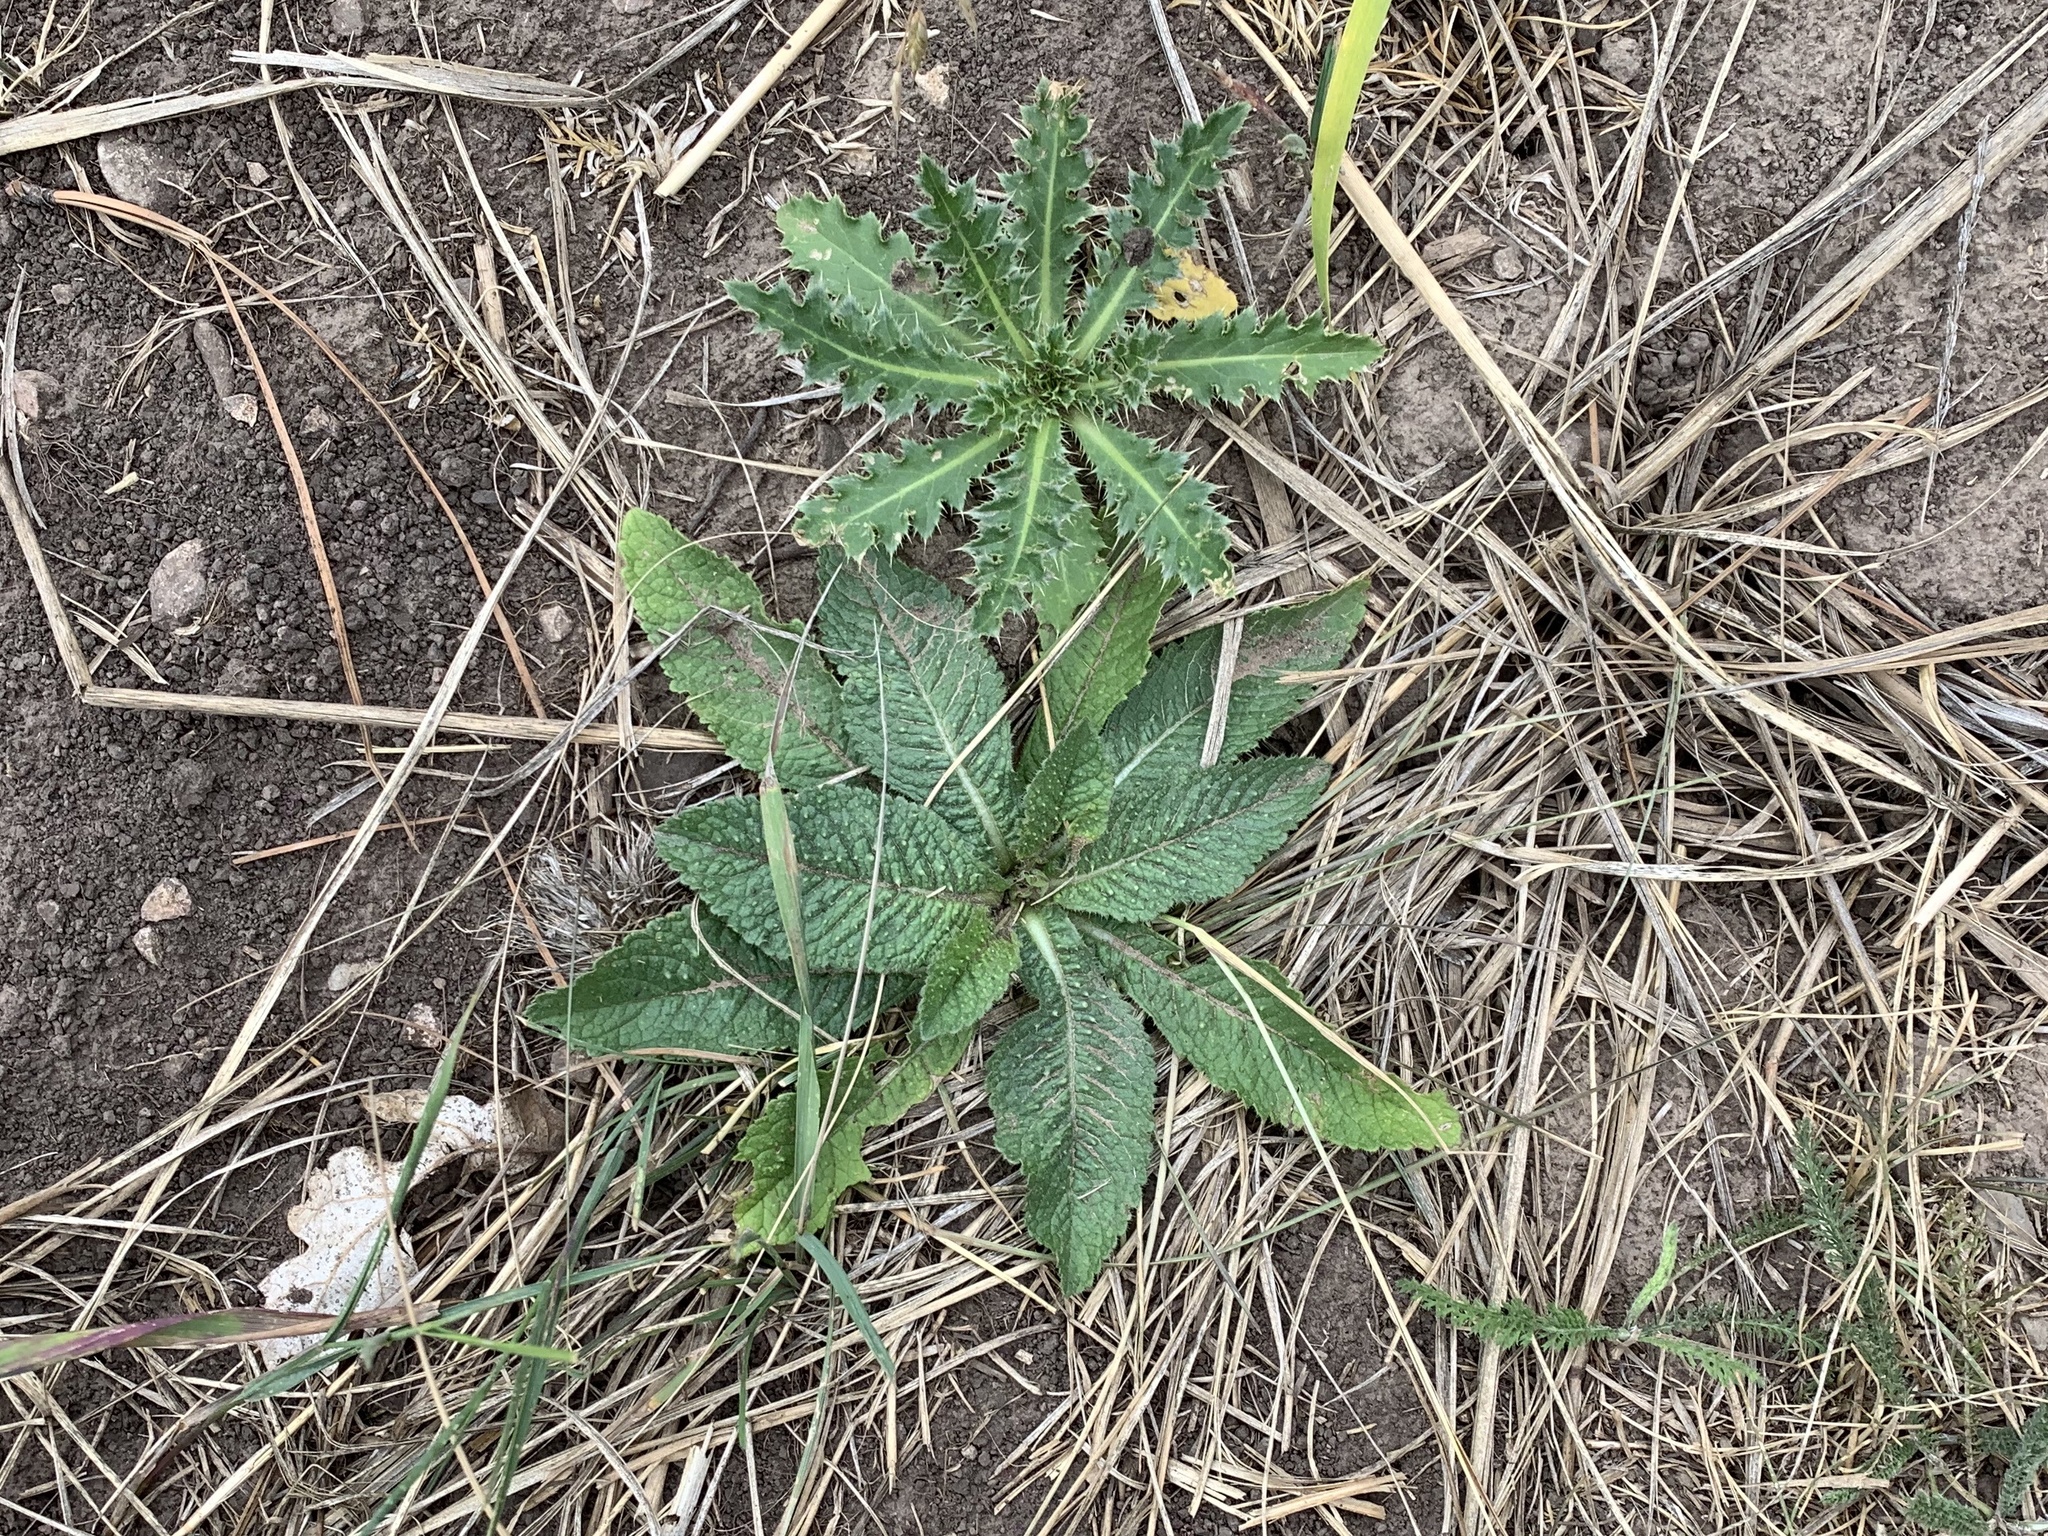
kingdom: Plantae
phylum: Tracheophyta
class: Magnoliopsida
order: Dipsacales
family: Caprifoliaceae
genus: Dipsacus
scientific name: Dipsacus fullonum
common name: Teasel
